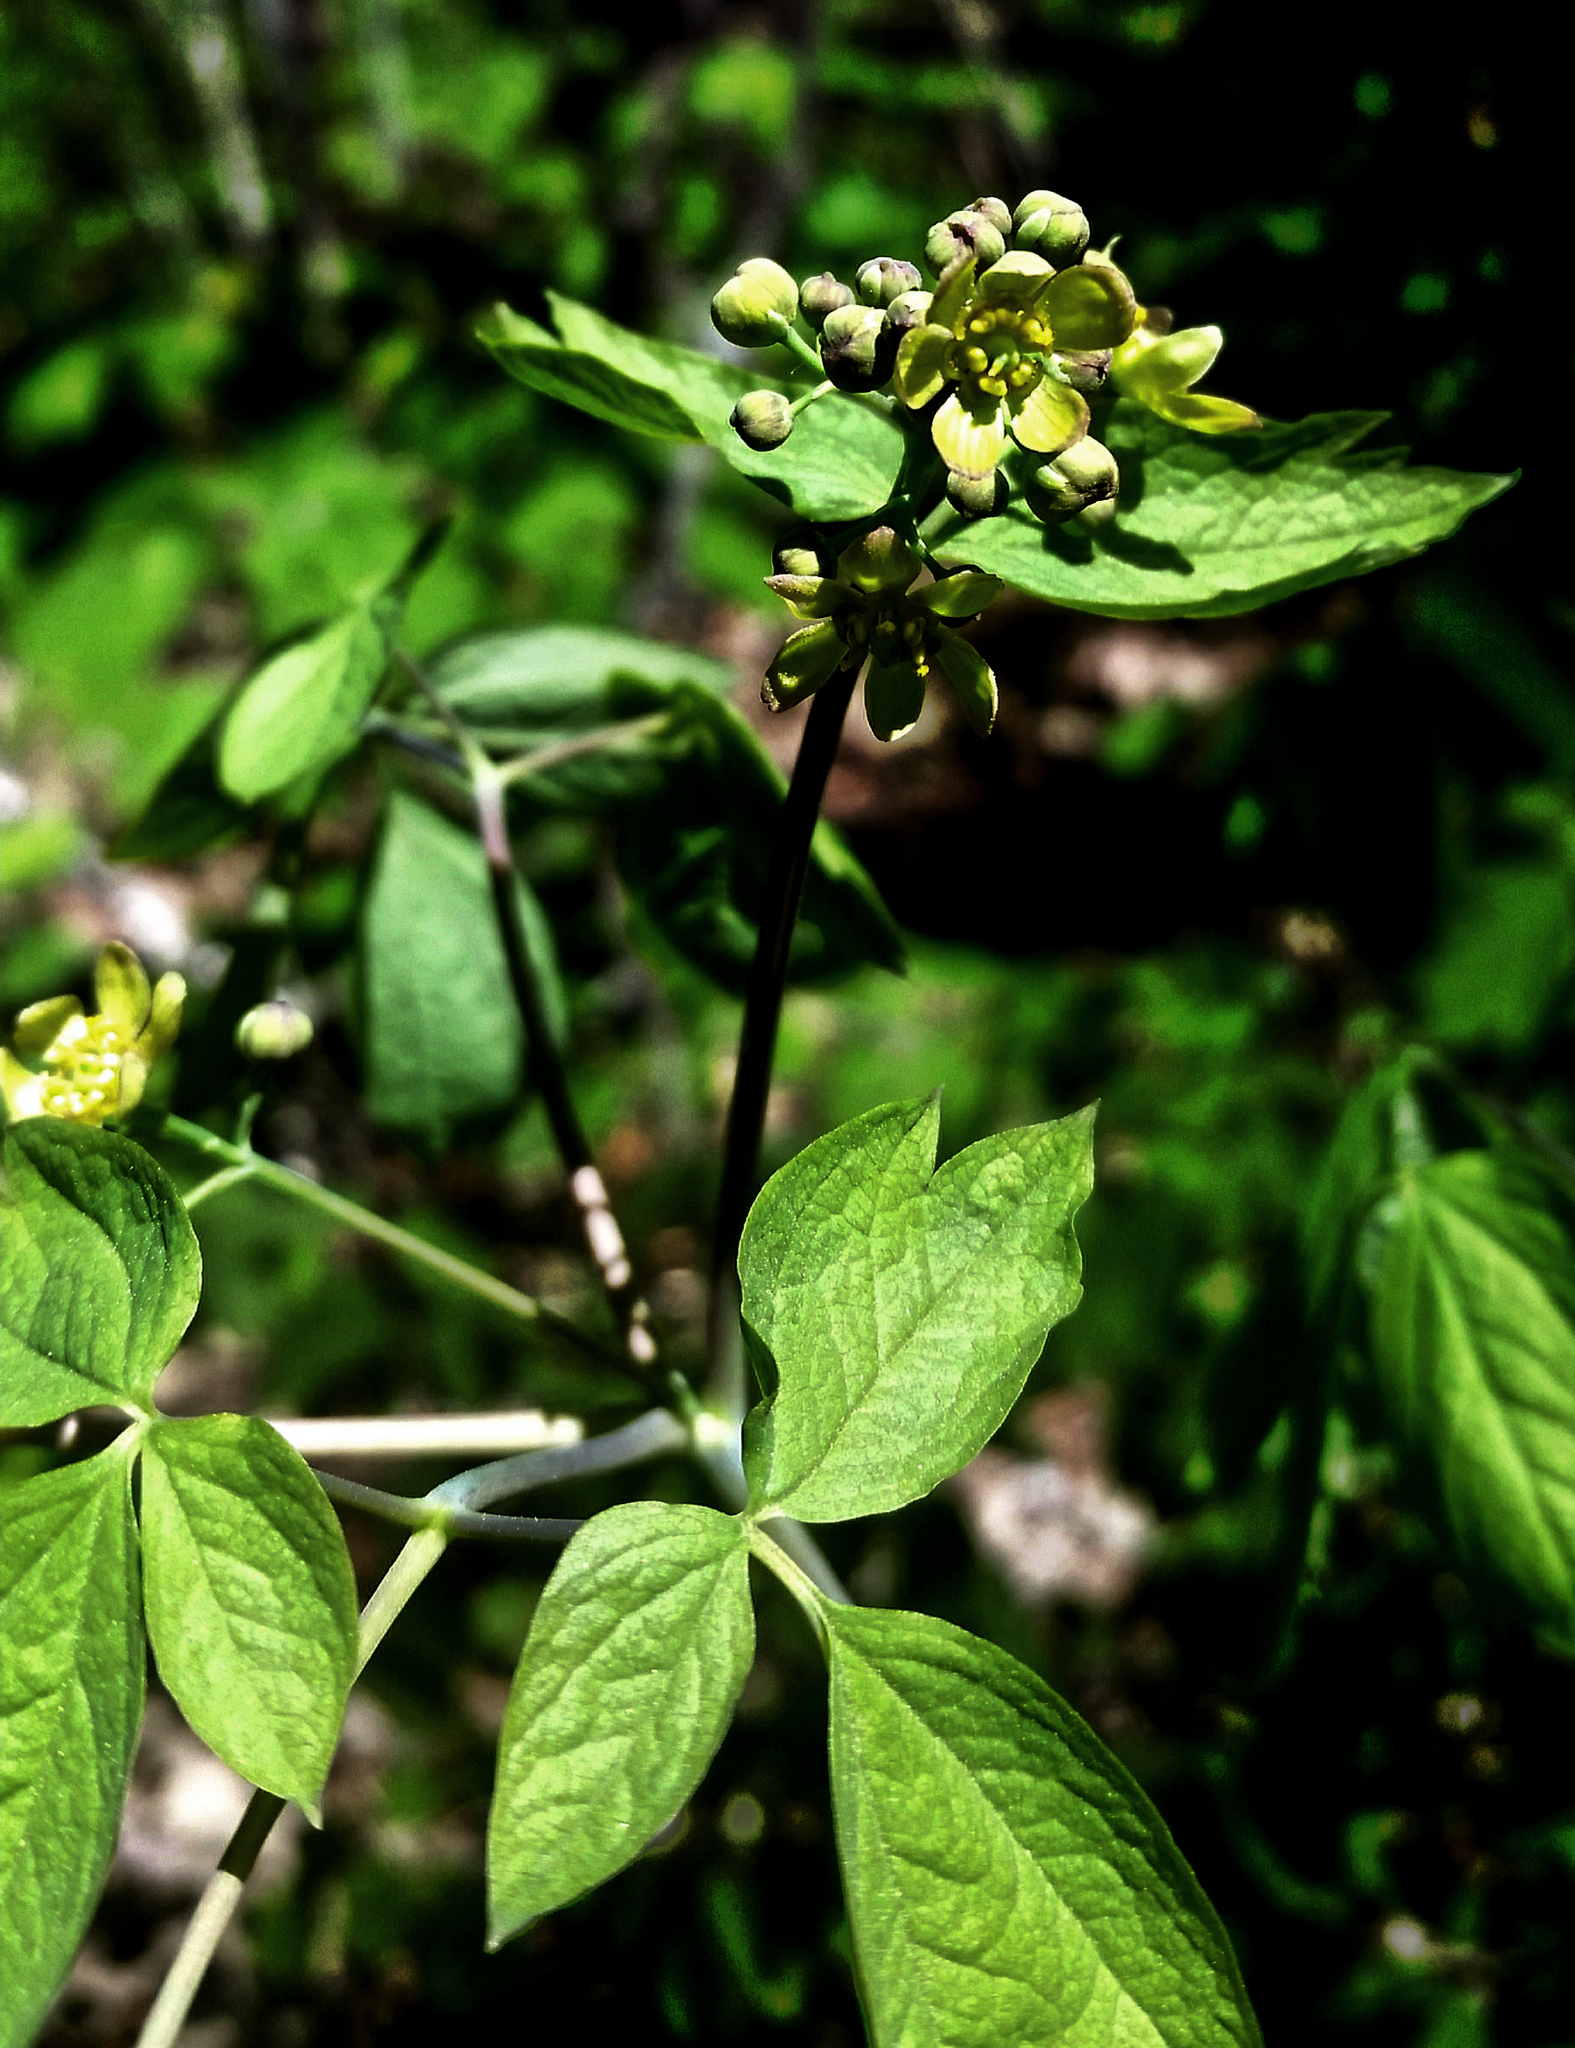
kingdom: Plantae
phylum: Tracheophyta
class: Magnoliopsida
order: Ranunculales
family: Berberidaceae
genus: Caulophyllum
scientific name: Caulophyllum thalictroides
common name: Blue cohosh
